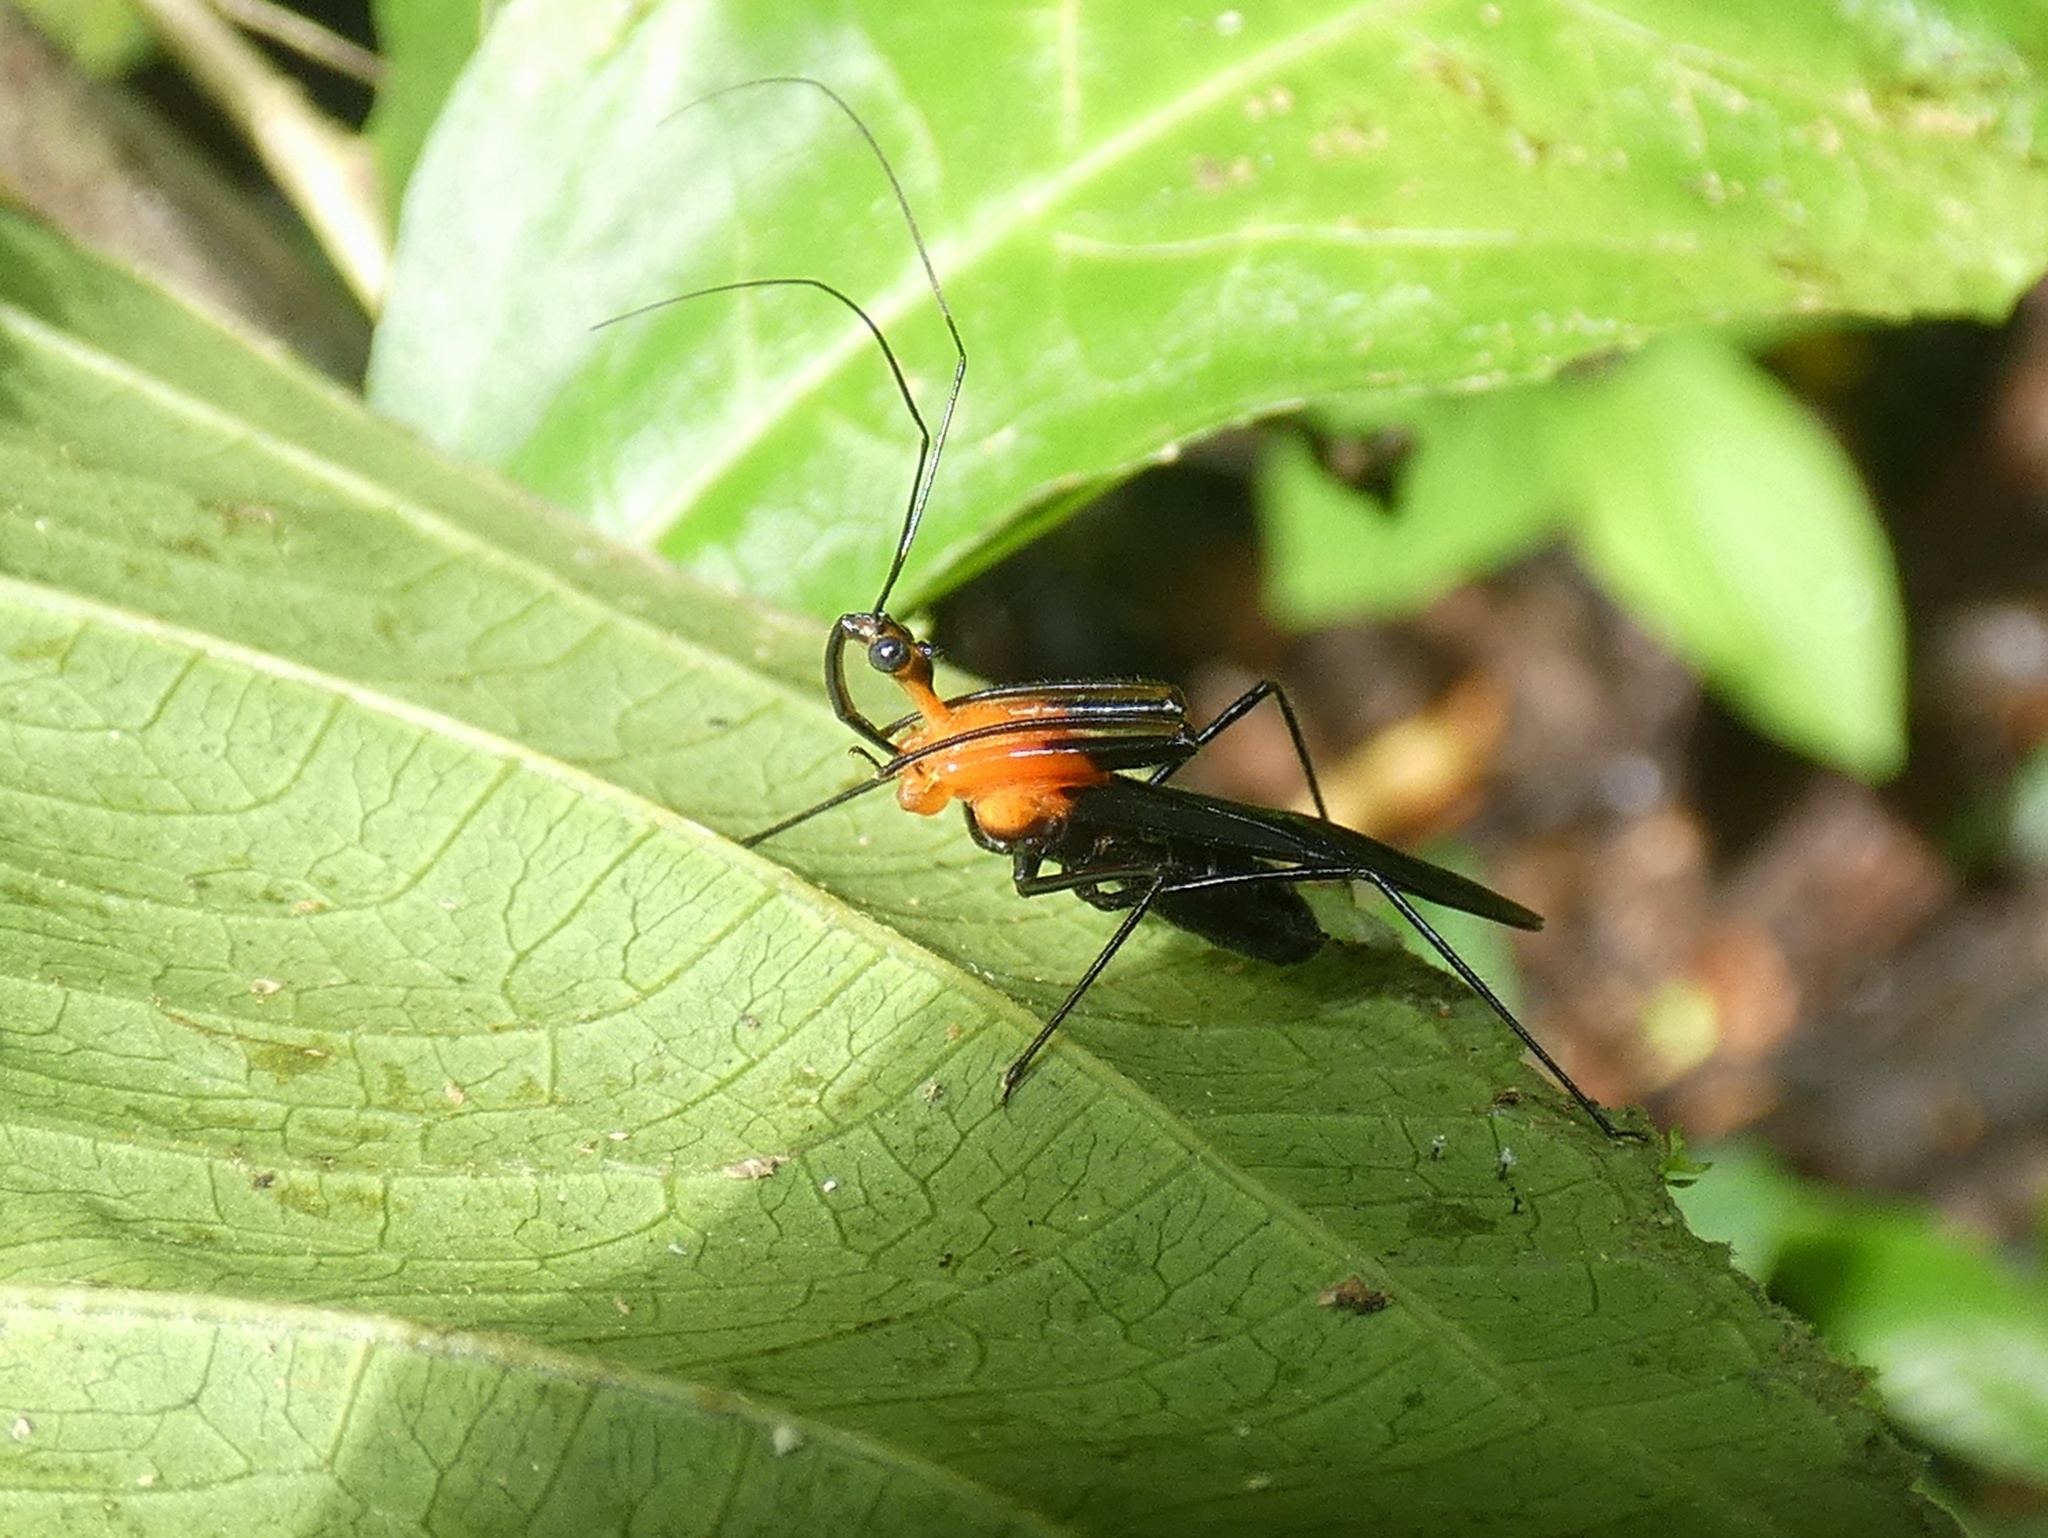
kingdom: Animalia
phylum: Arthropoda
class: Insecta
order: Hemiptera
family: Reduviidae
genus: Acanthischium
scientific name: Acanthischium
